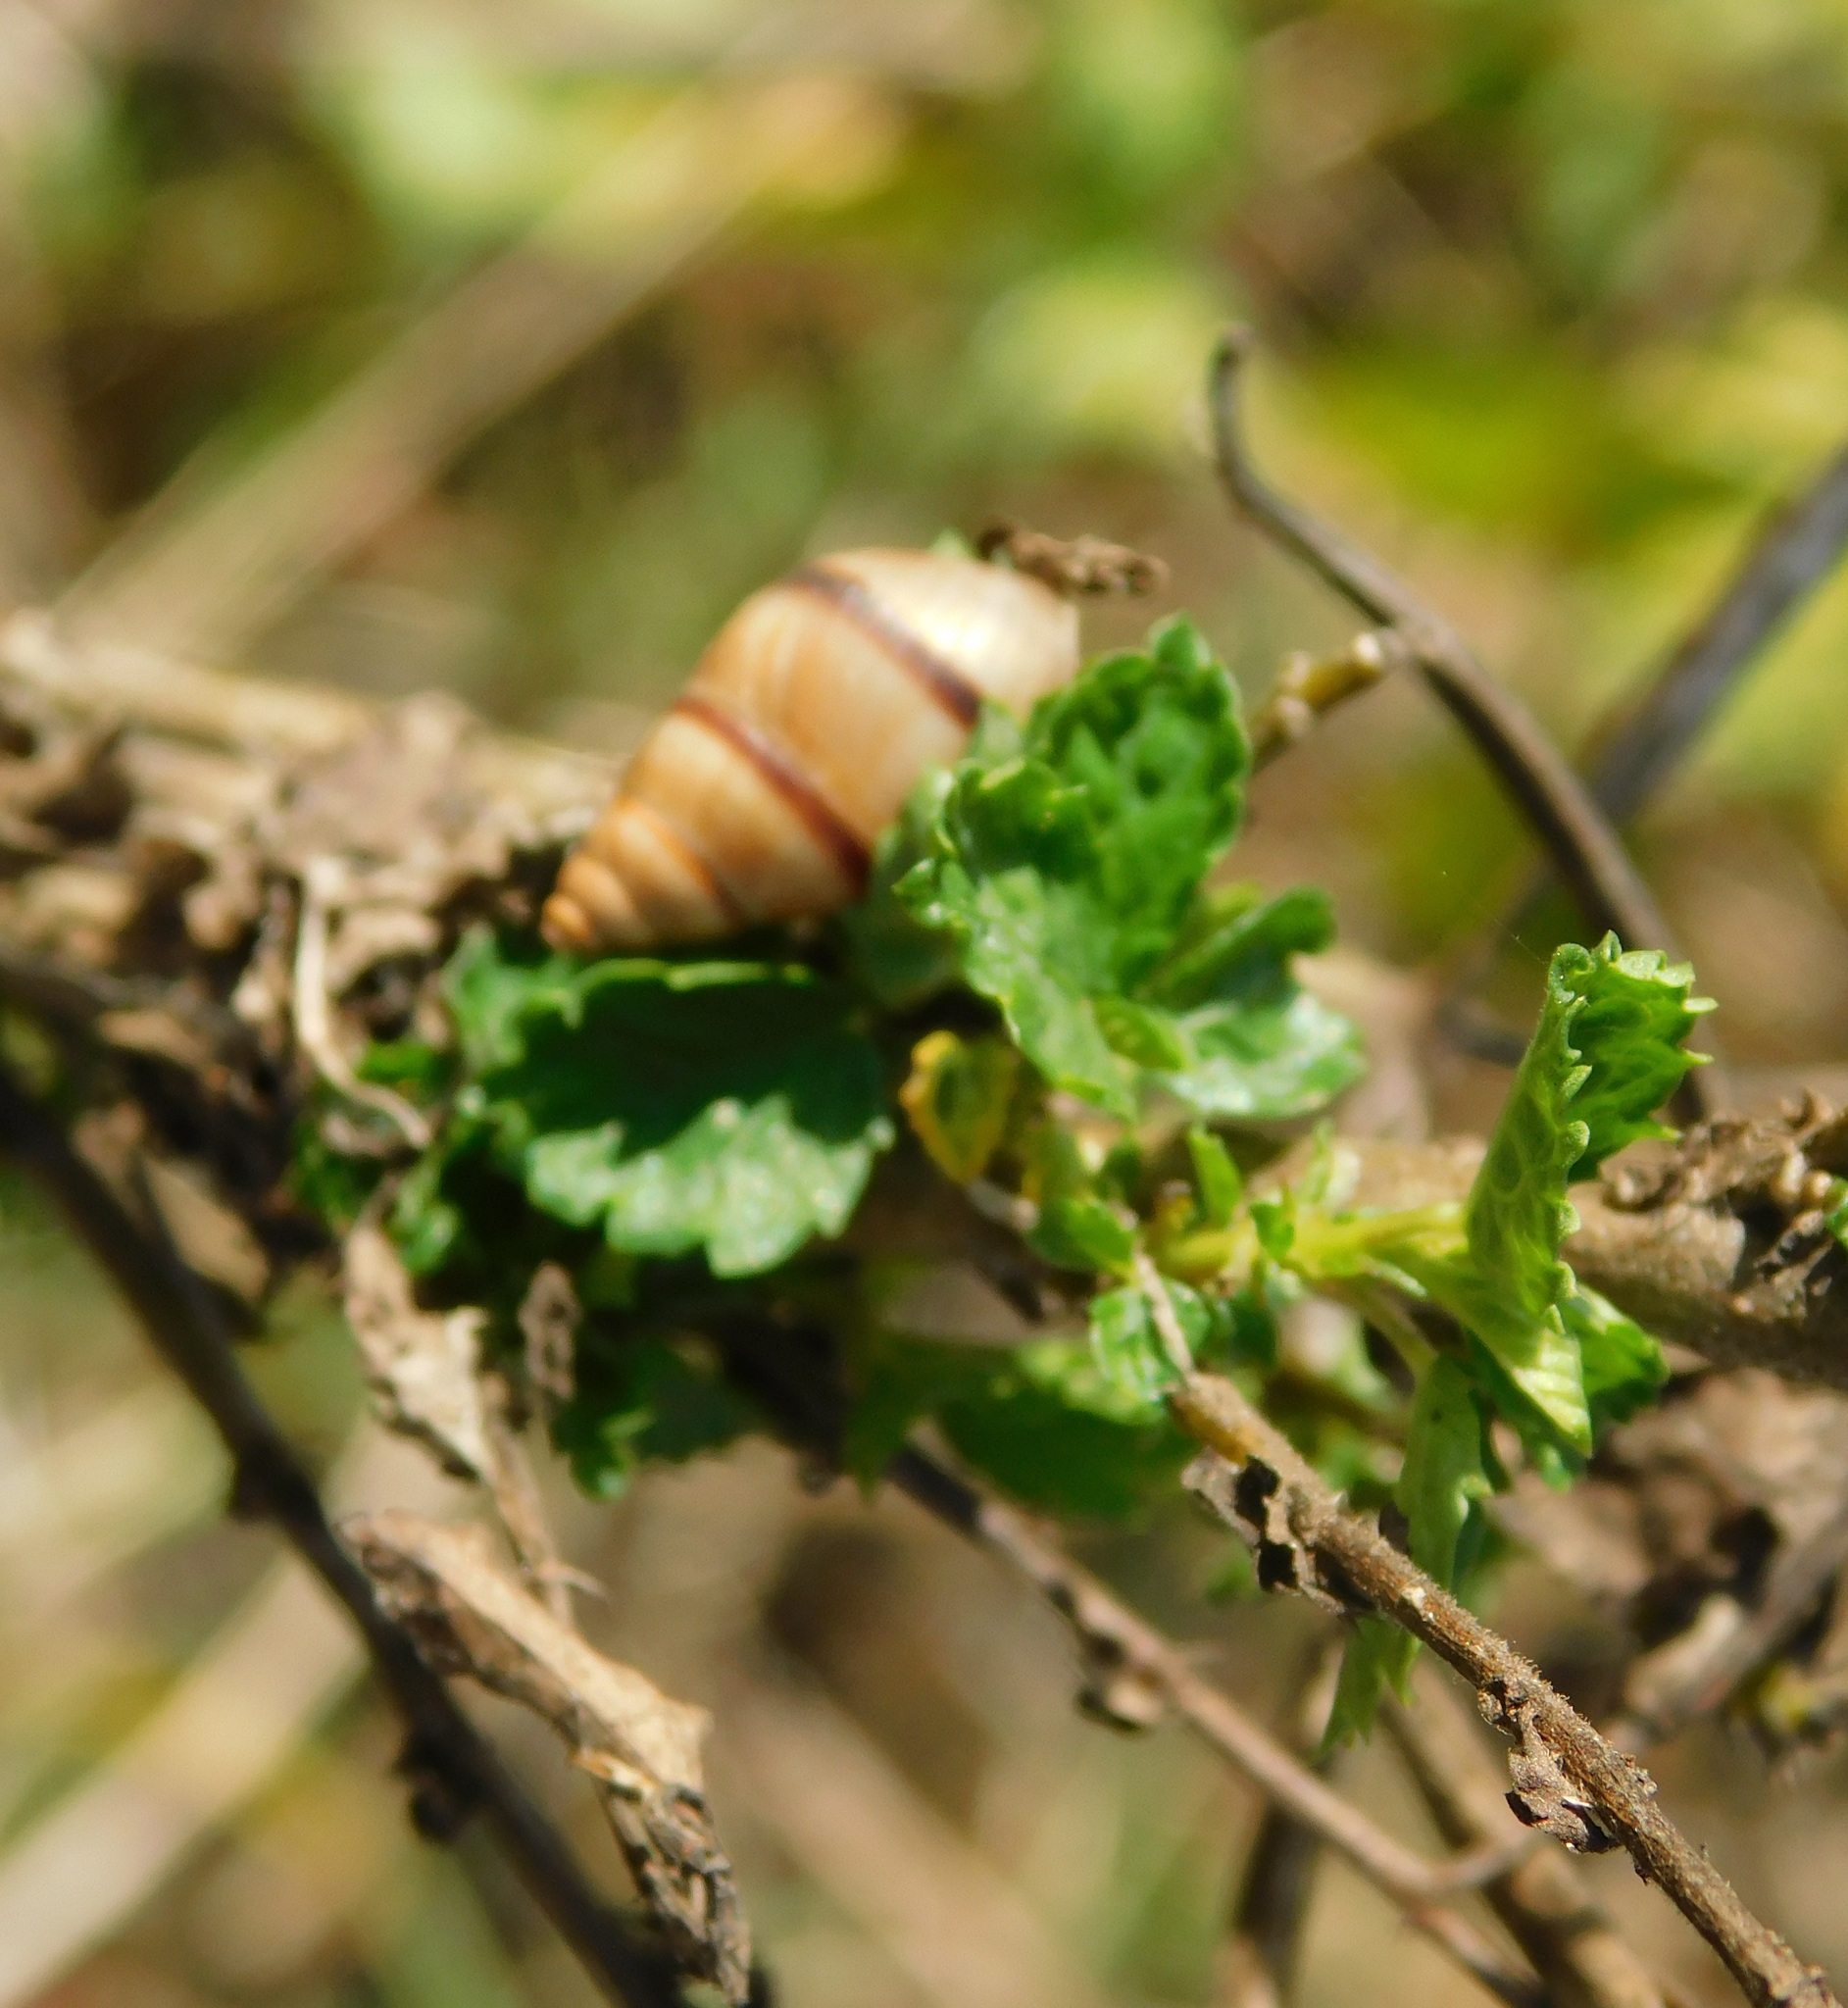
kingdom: Animalia
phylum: Mollusca
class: Gastropoda
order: Stylommatophora
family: Bulimulidae
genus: Bulimulus
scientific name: Bulimulus guadalupensis
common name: West indian bulimulus
